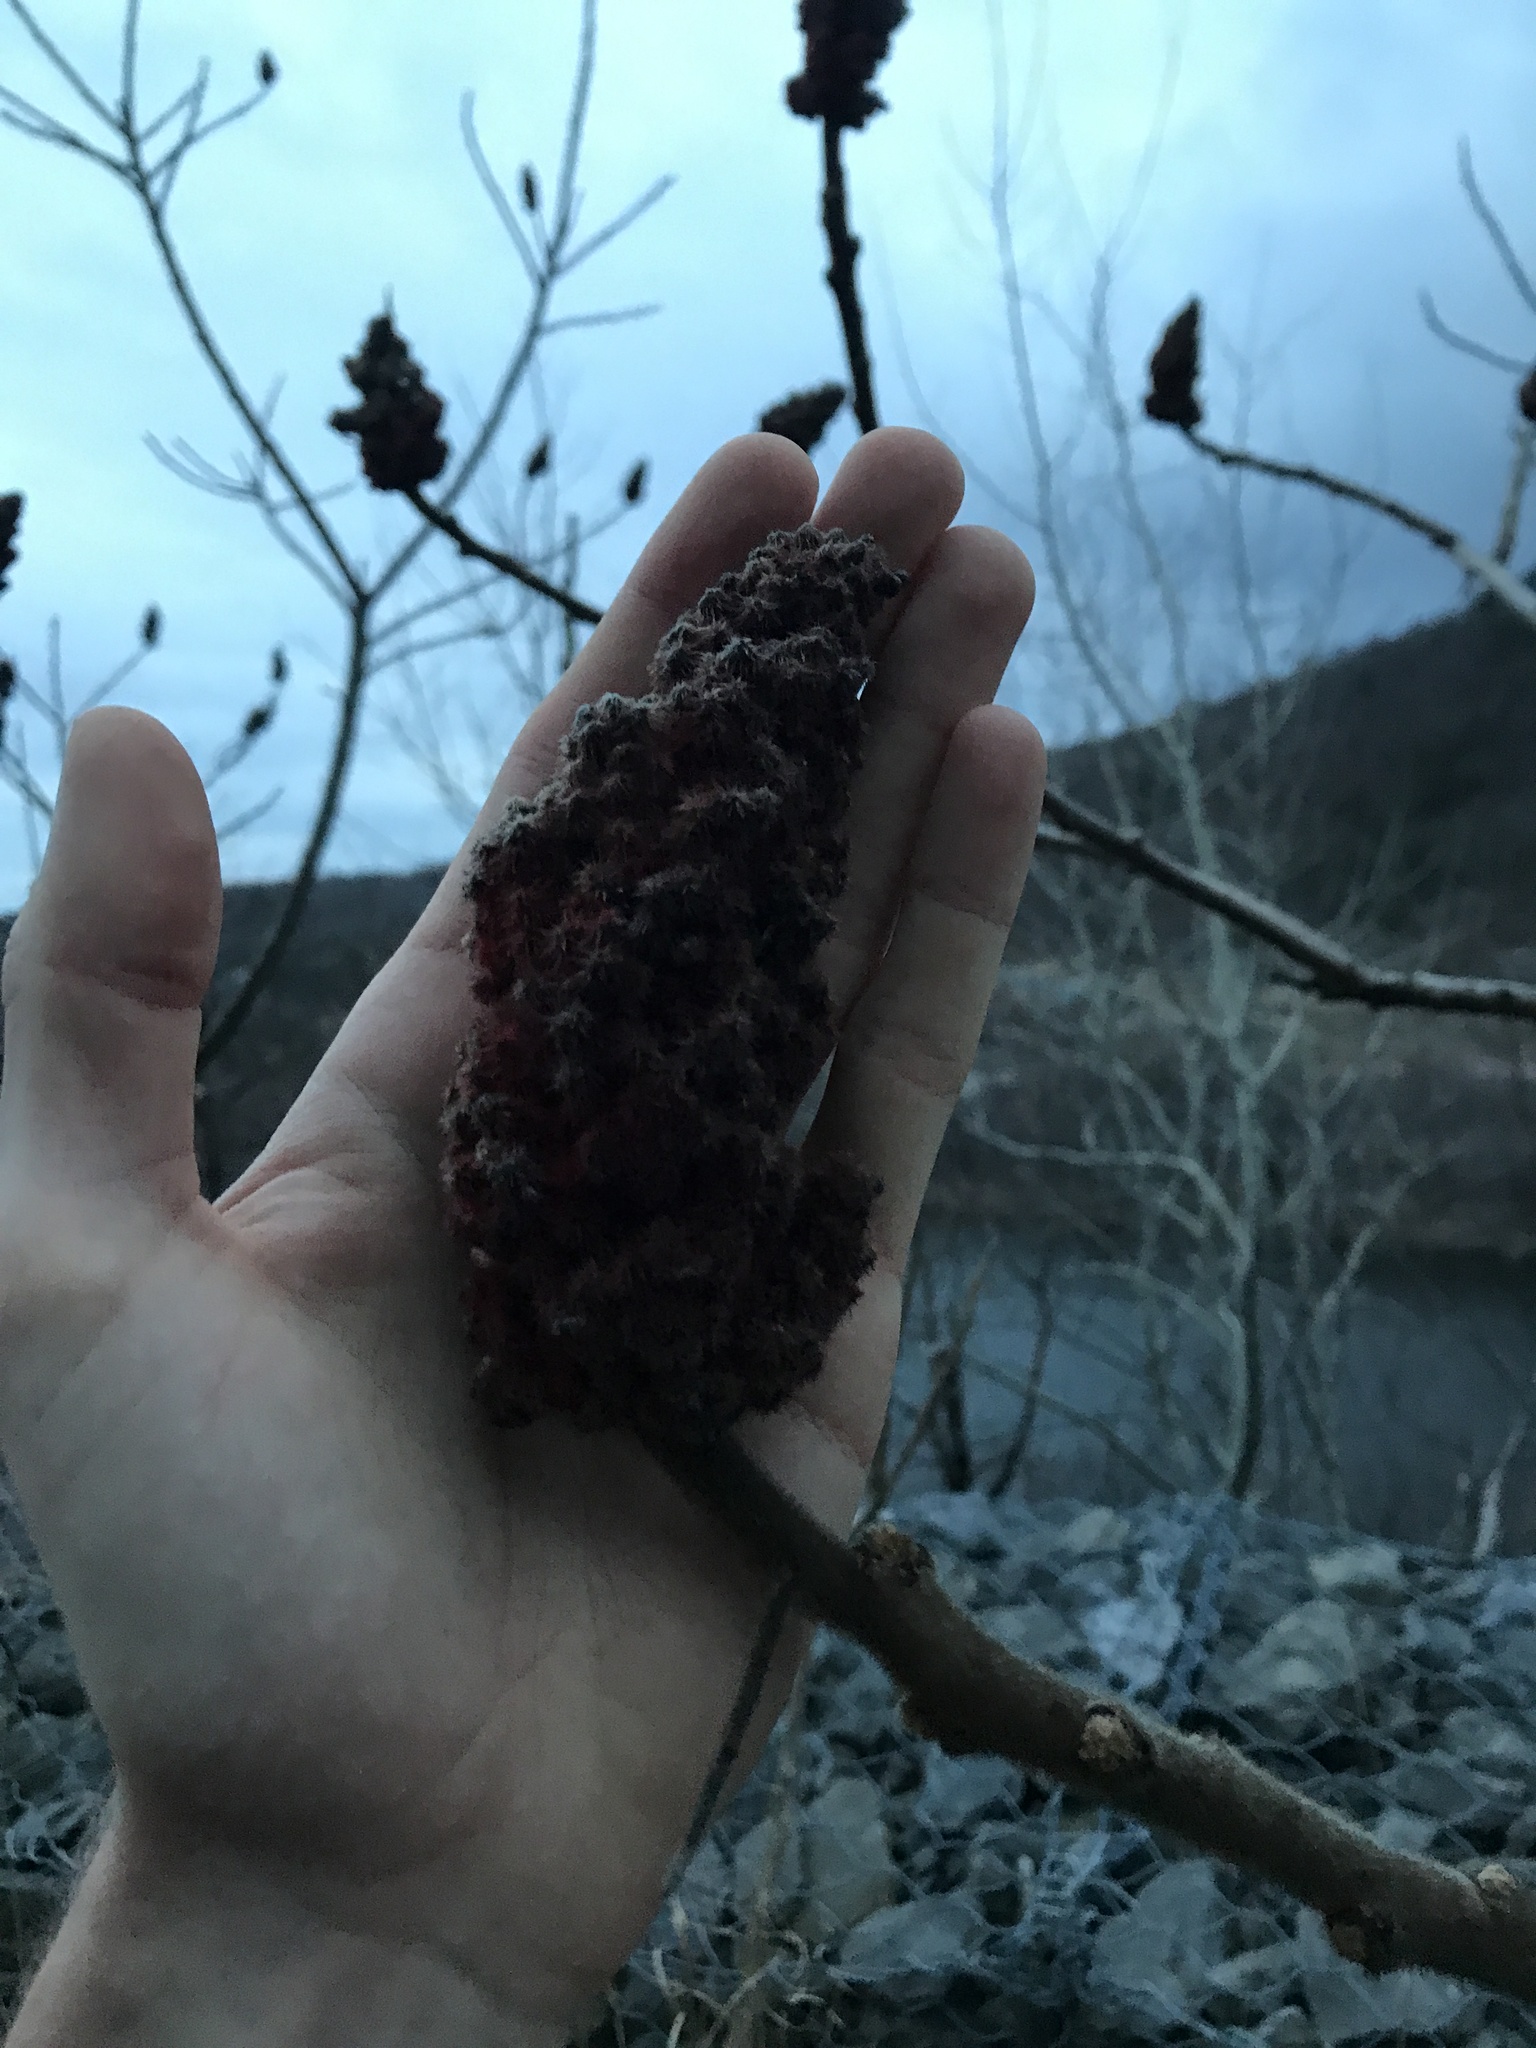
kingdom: Plantae
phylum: Tracheophyta
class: Magnoliopsida
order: Sapindales
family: Anacardiaceae
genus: Rhus
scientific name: Rhus typhina
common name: Staghorn sumac
